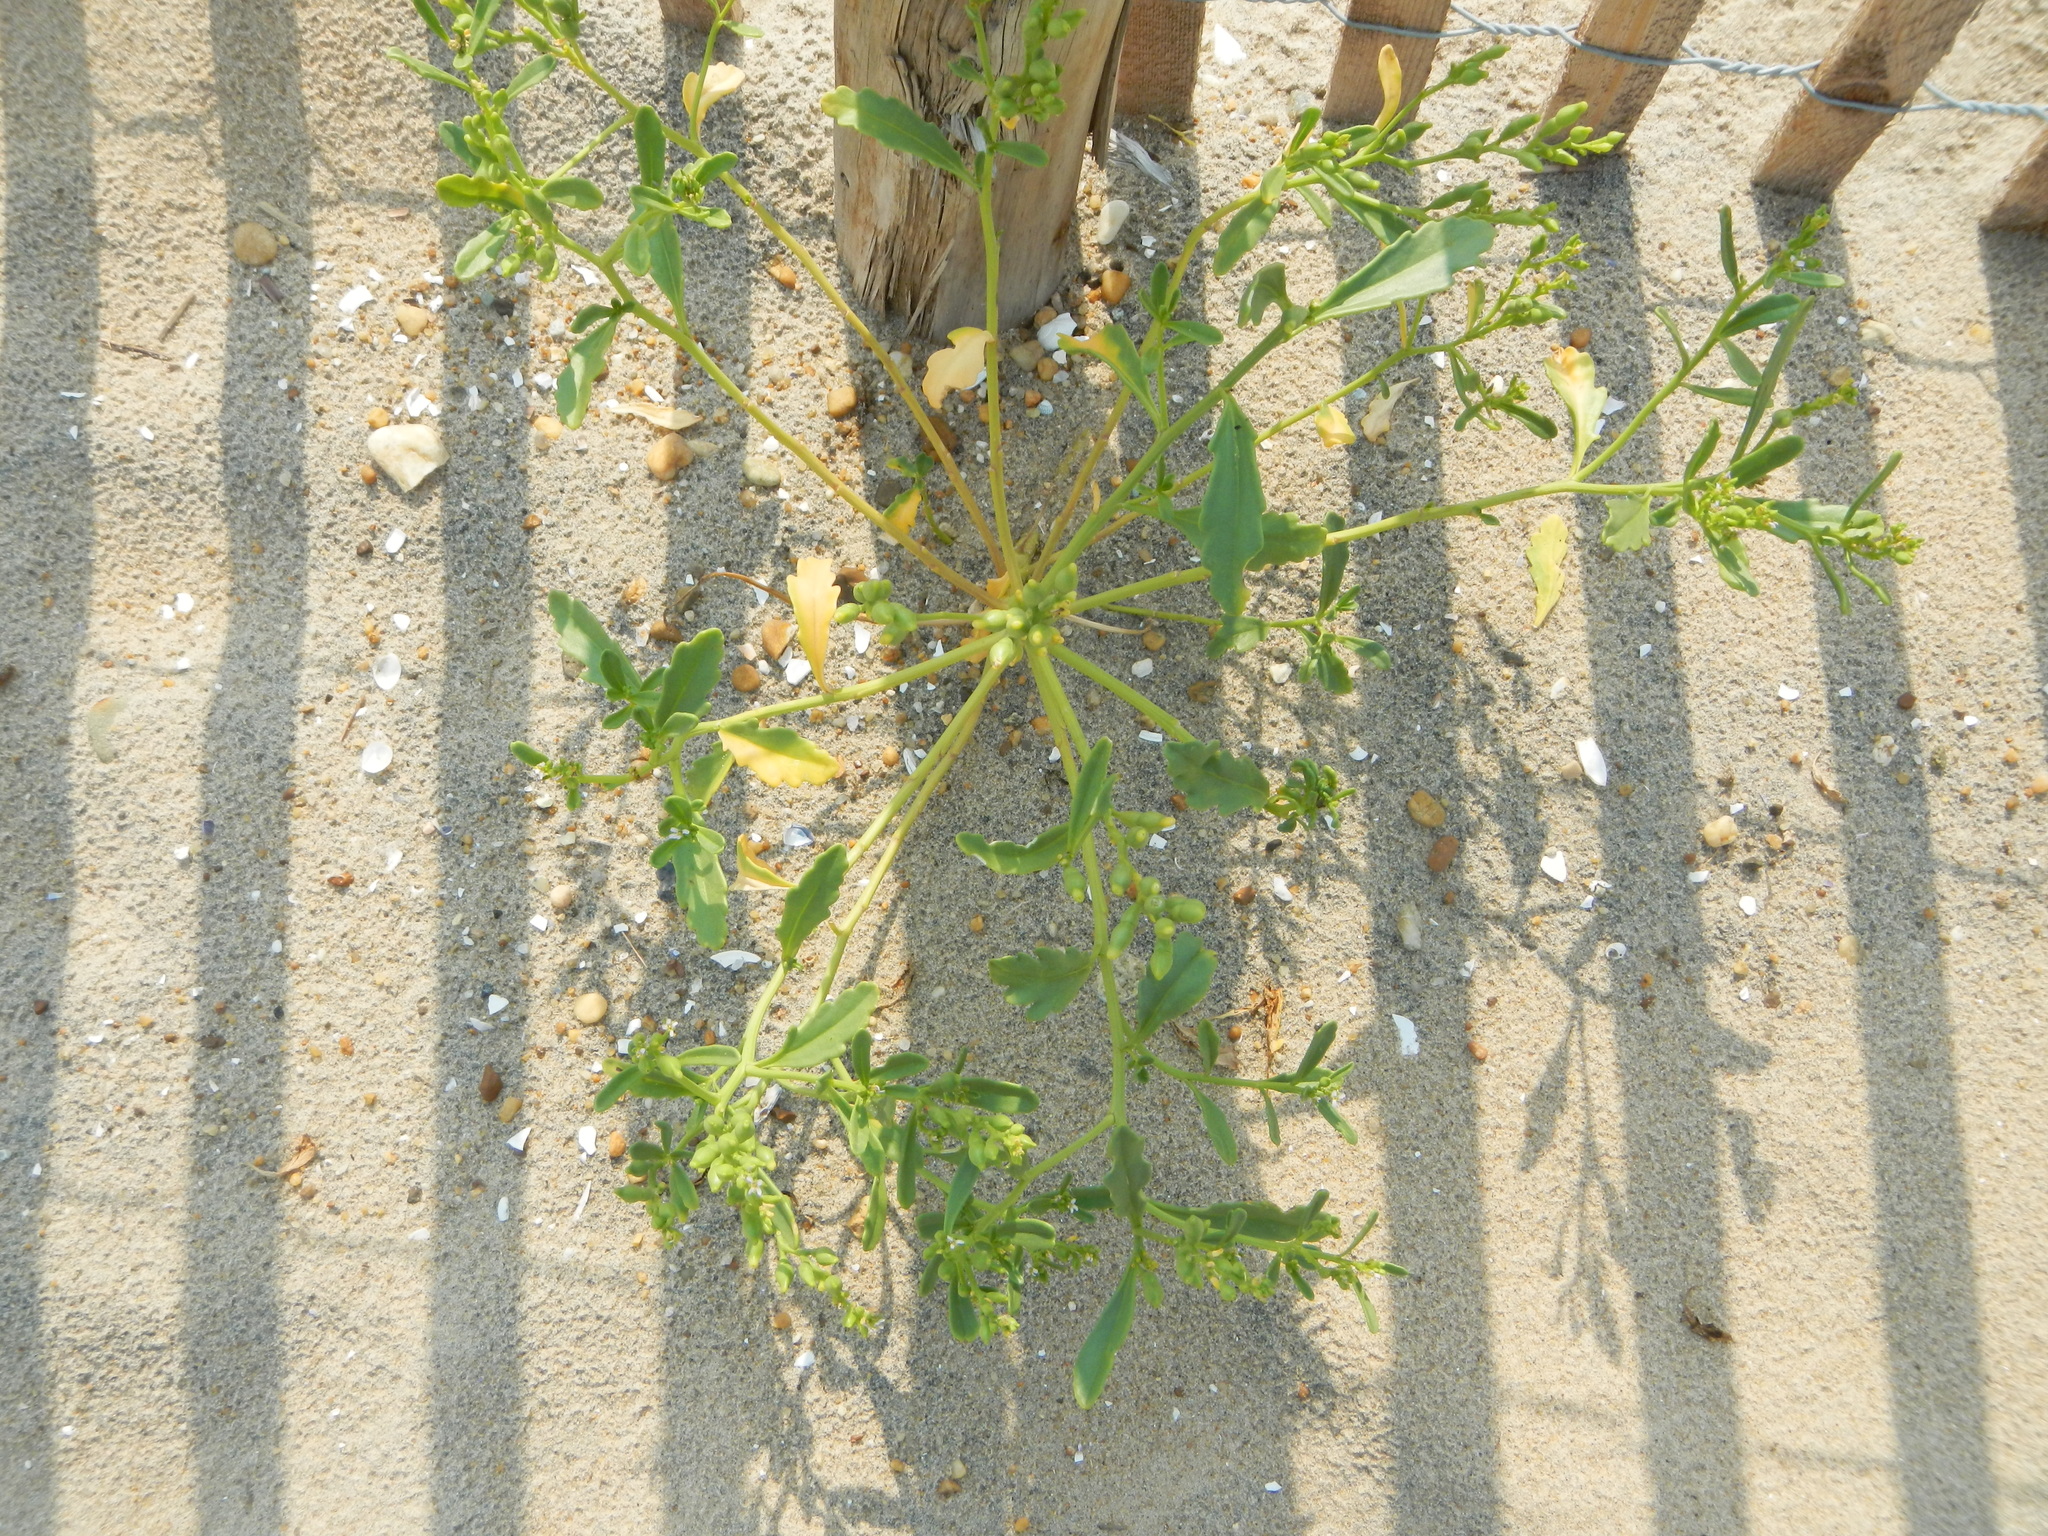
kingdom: Plantae
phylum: Tracheophyta
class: Magnoliopsida
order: Brassicales
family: Brassicaceae
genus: Cakile
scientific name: Cakile edentula
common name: American sea rocket
